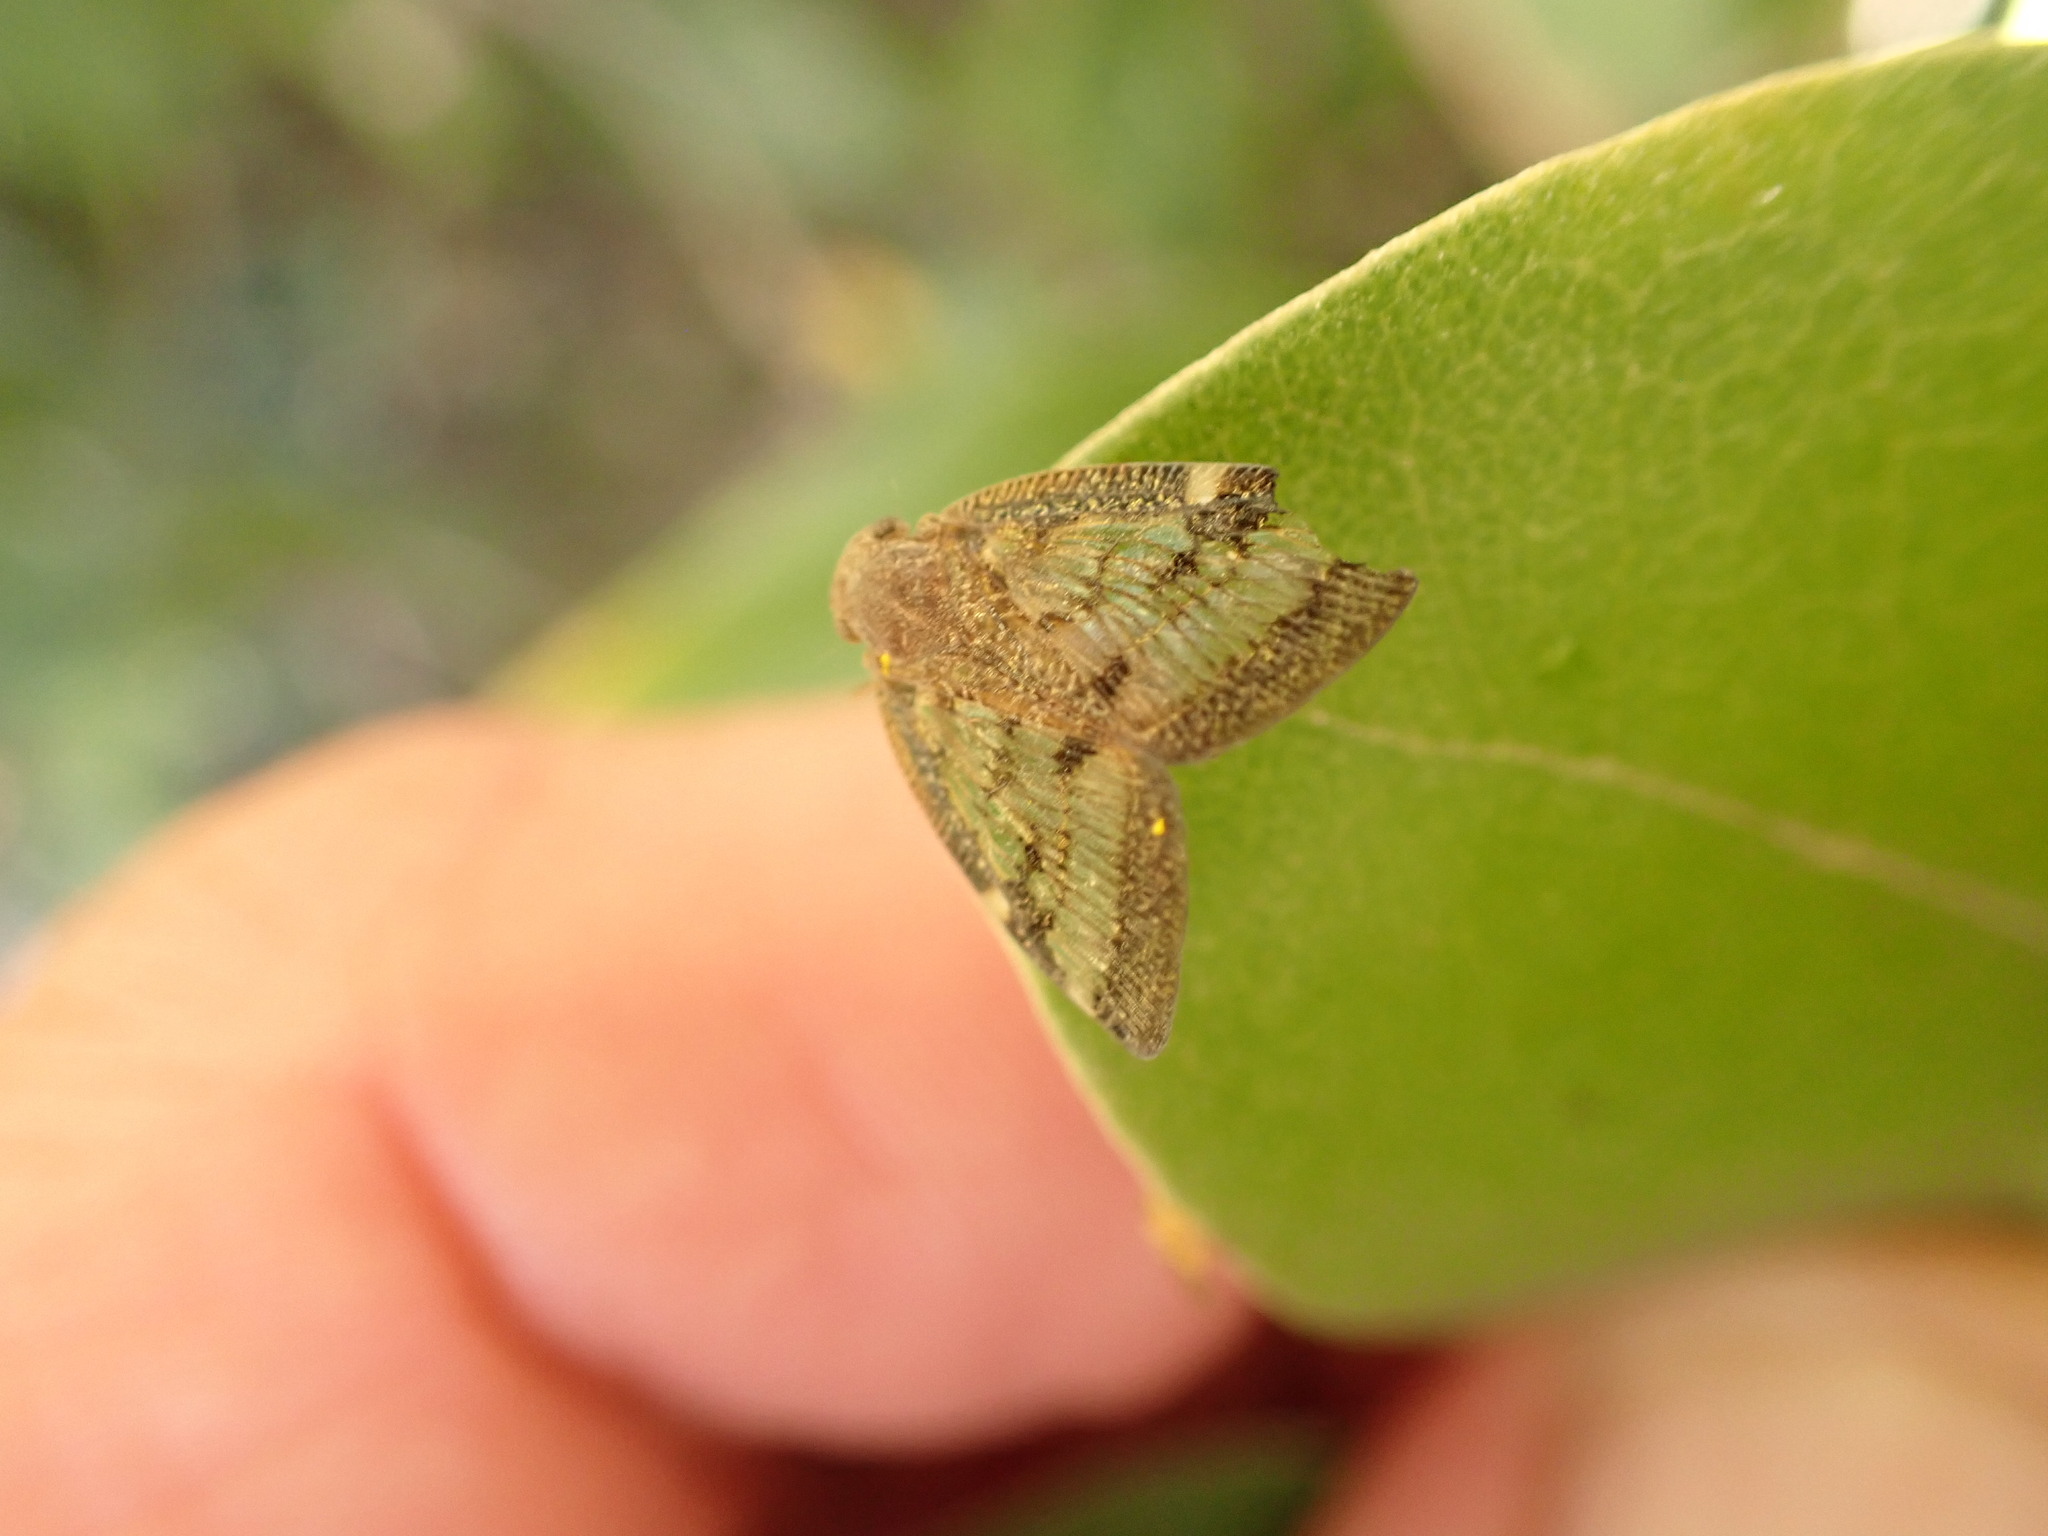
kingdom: Animalia
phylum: Arthropoda
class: Insecta
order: Hemiptera
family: Ricaniidae
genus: Scolypopa
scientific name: Scolypopa australis
